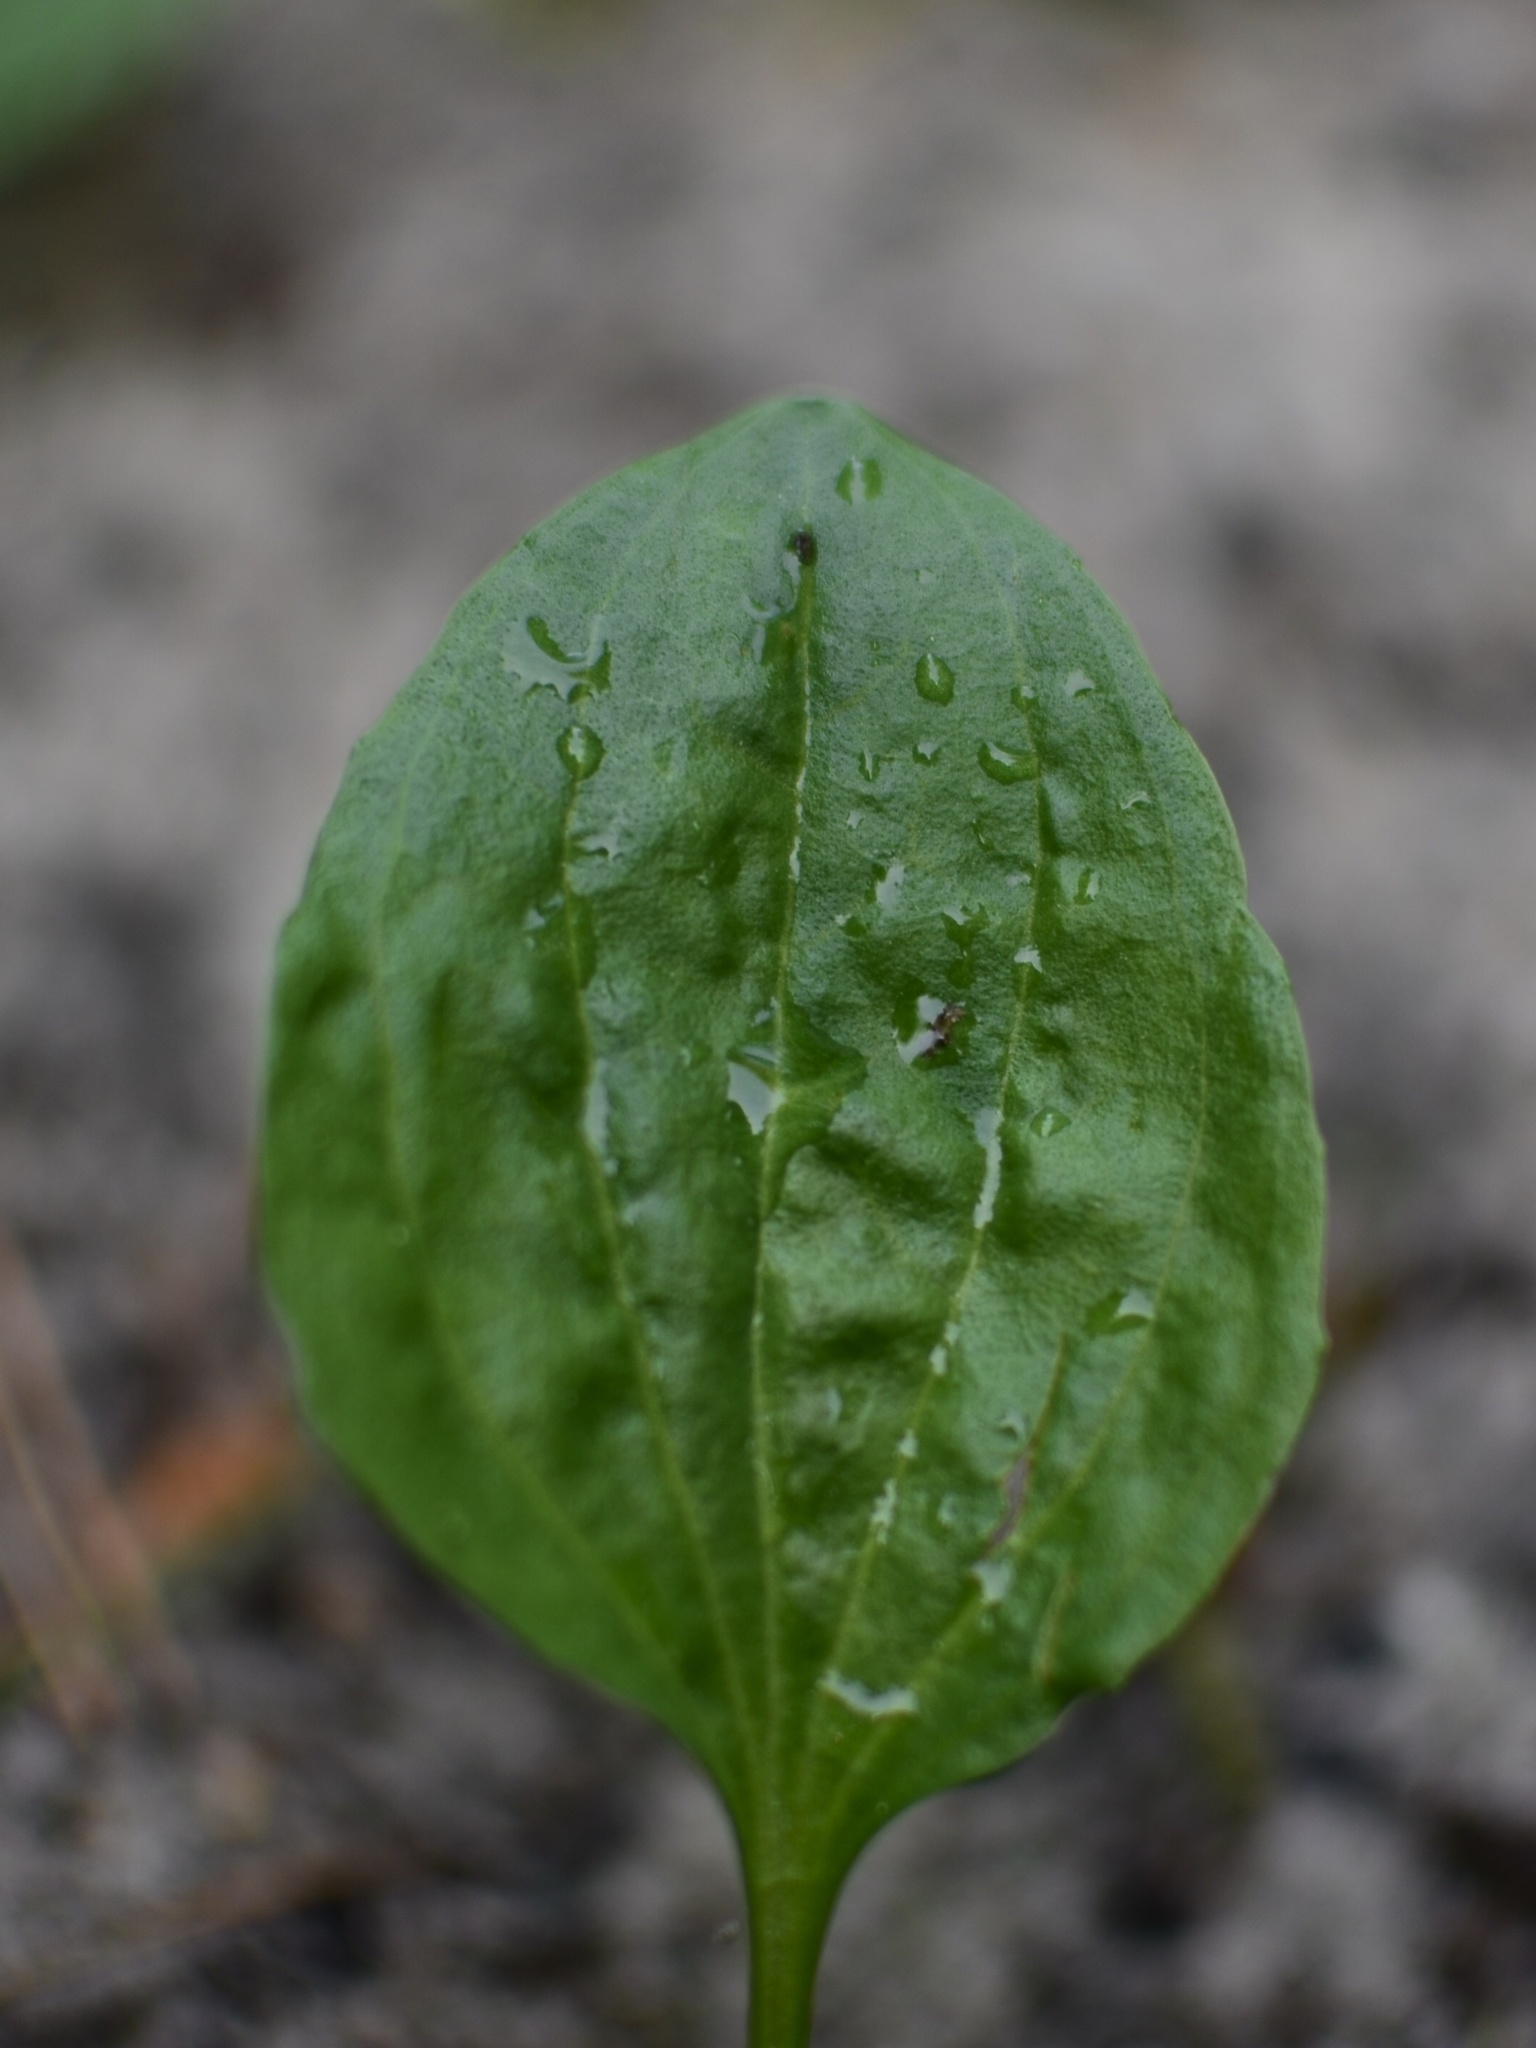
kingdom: Plantae
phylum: Tracheophyta
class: Magnoliopsida
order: Lamiales
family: Plantaginaceae
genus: Plantago
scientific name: Plantago major
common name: Common plantain
